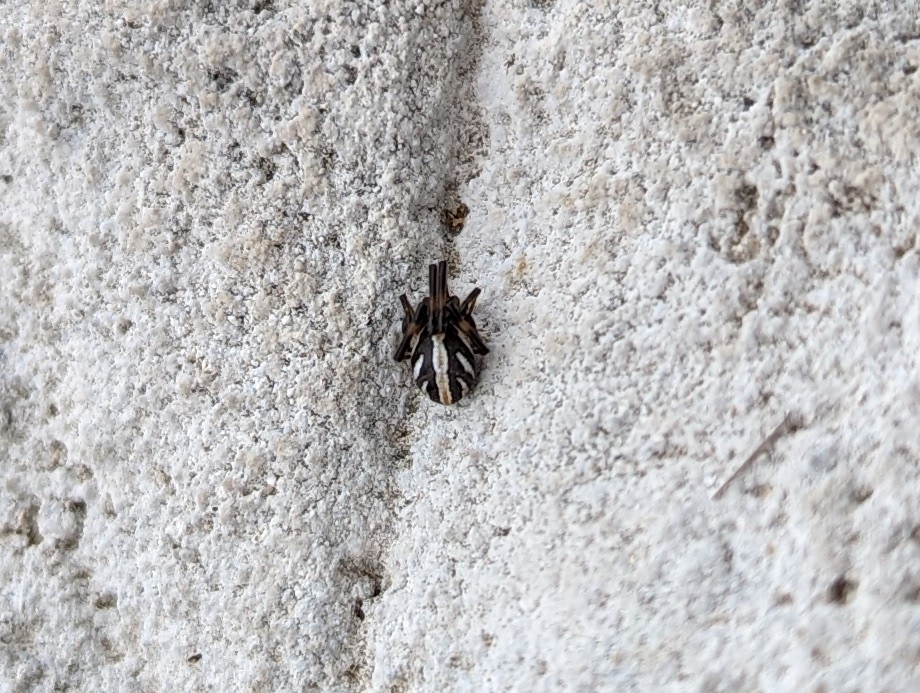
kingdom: Animalia
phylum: Arthropoda
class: Arachnida
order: Araneae
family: Theridiidae
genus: Latrodectus
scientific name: Latrodectus hesperus
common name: Western black widow
